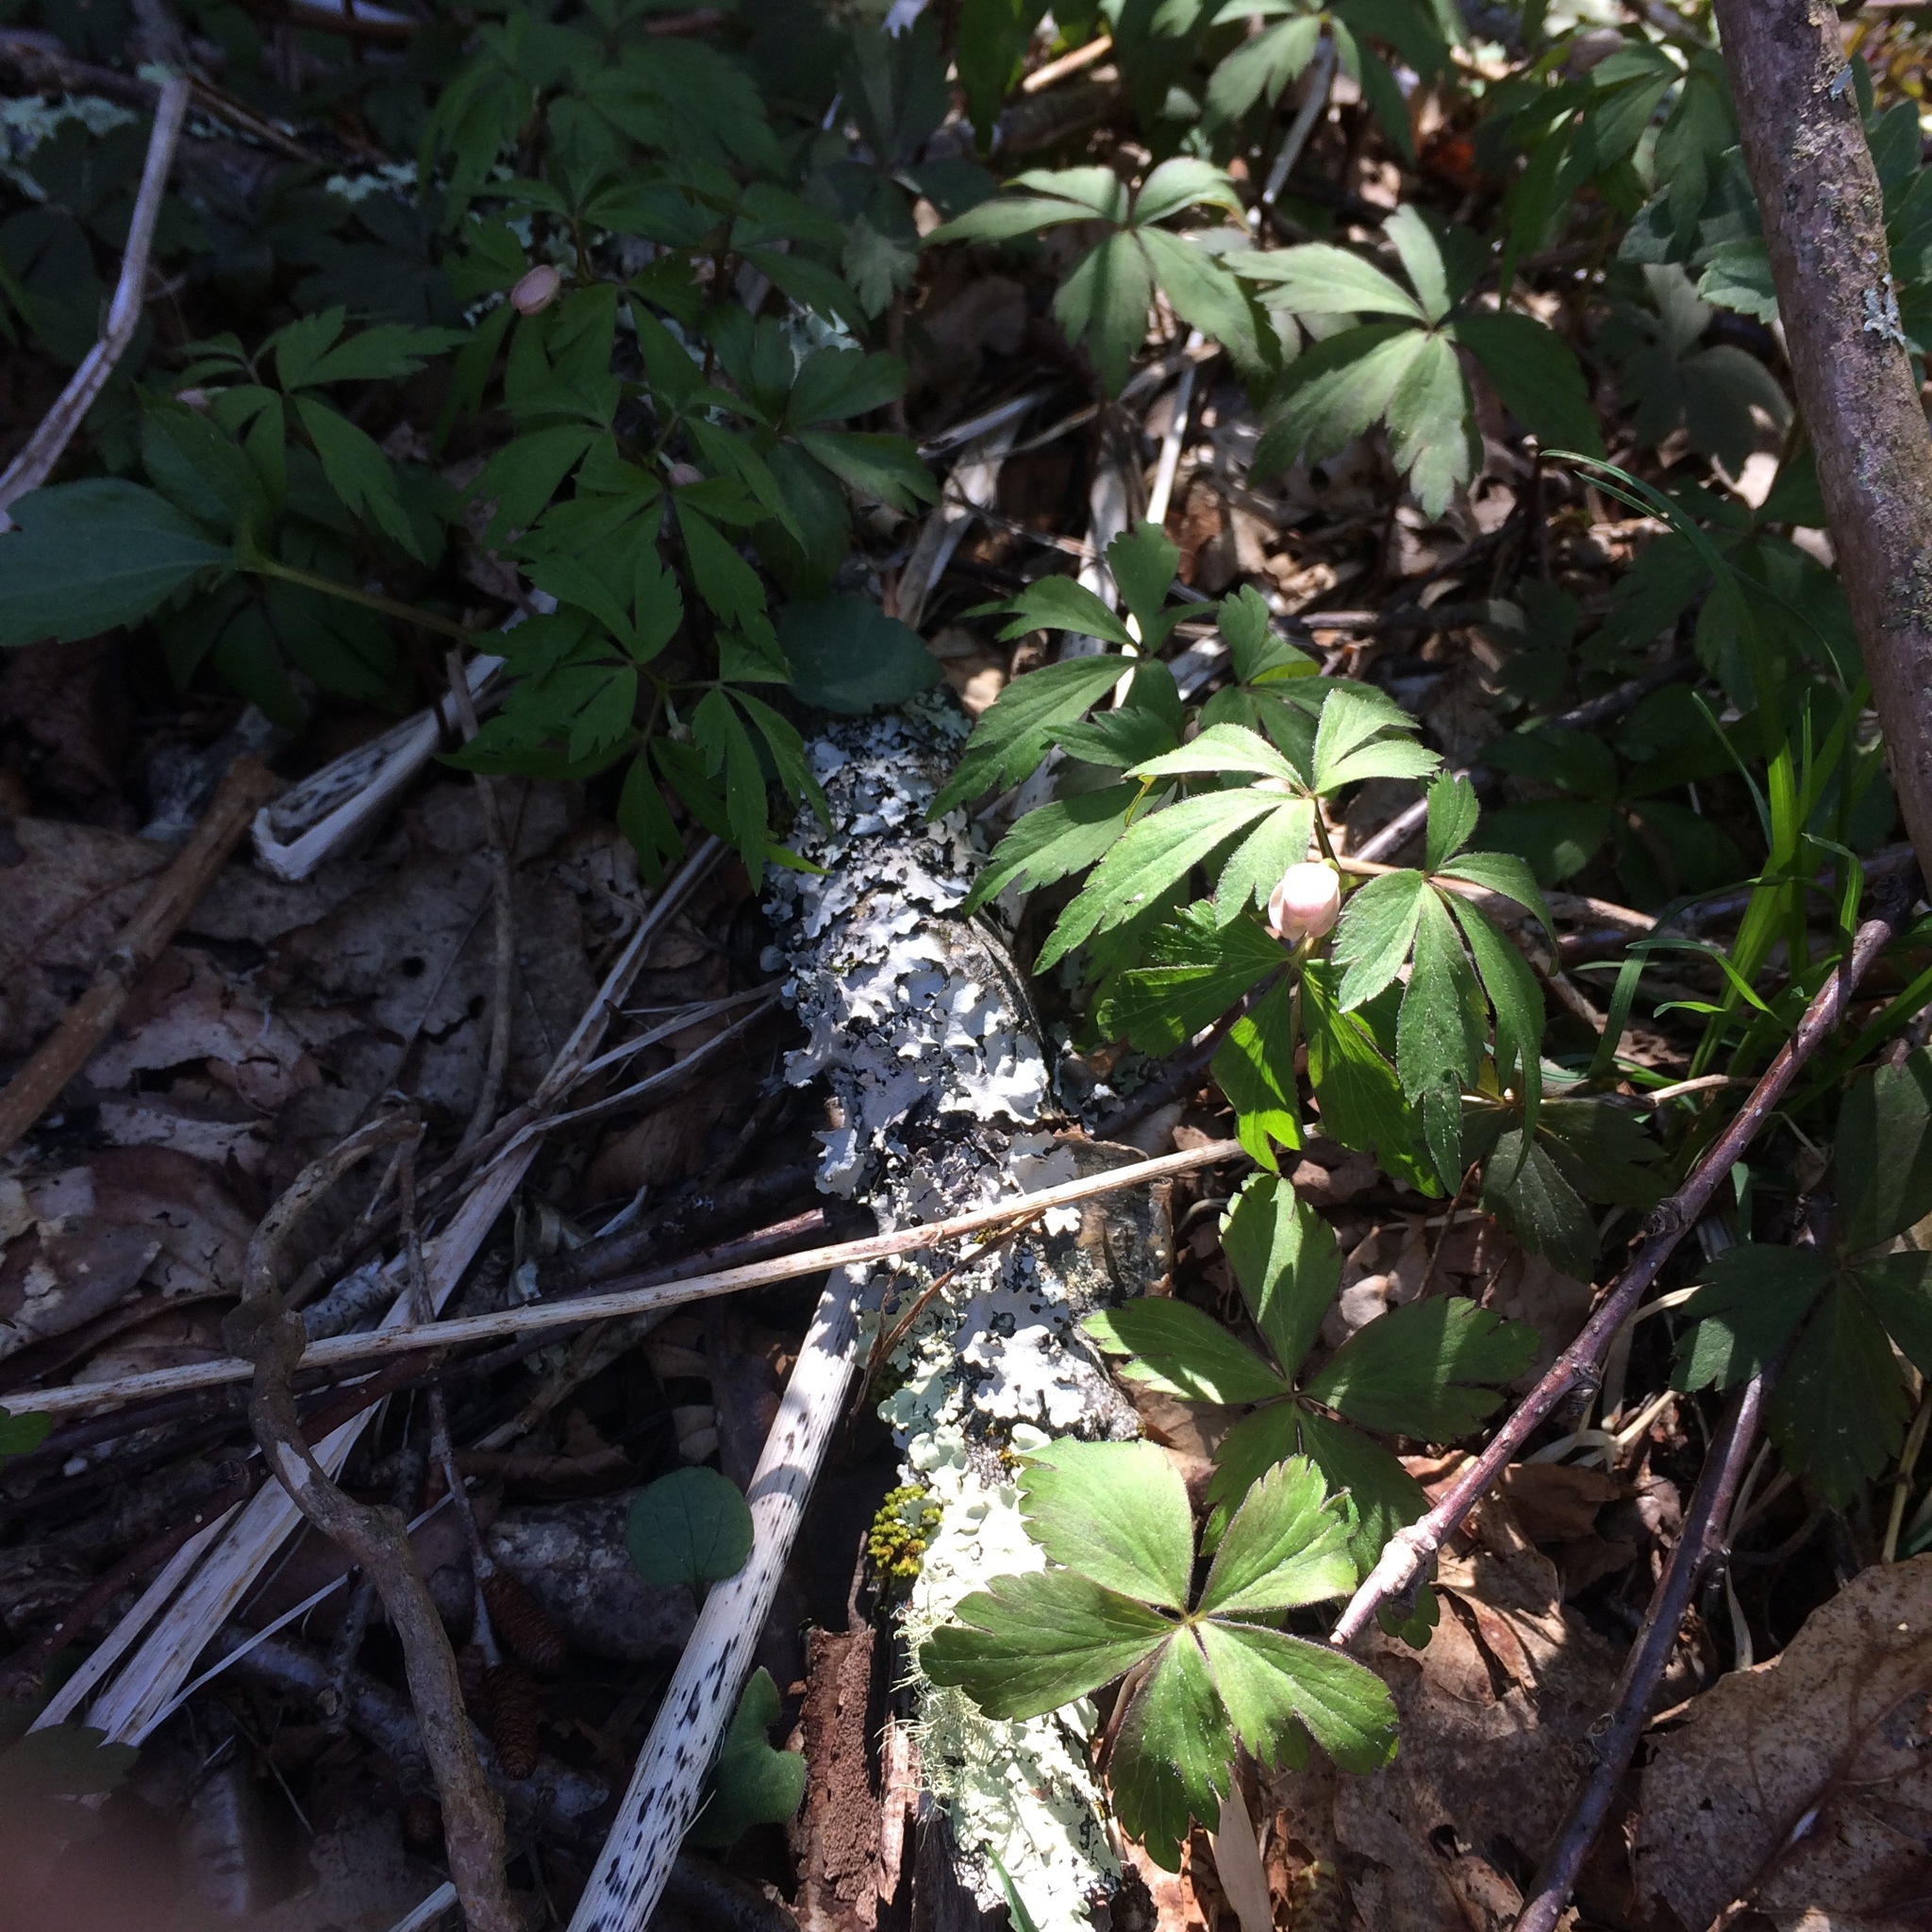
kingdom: Plantae
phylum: Tracheophyta
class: Magnoliopsida
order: Ranunculales
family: Ranunculaceae
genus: Anemone
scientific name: Anemone quinquefolia
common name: Wood anemone
